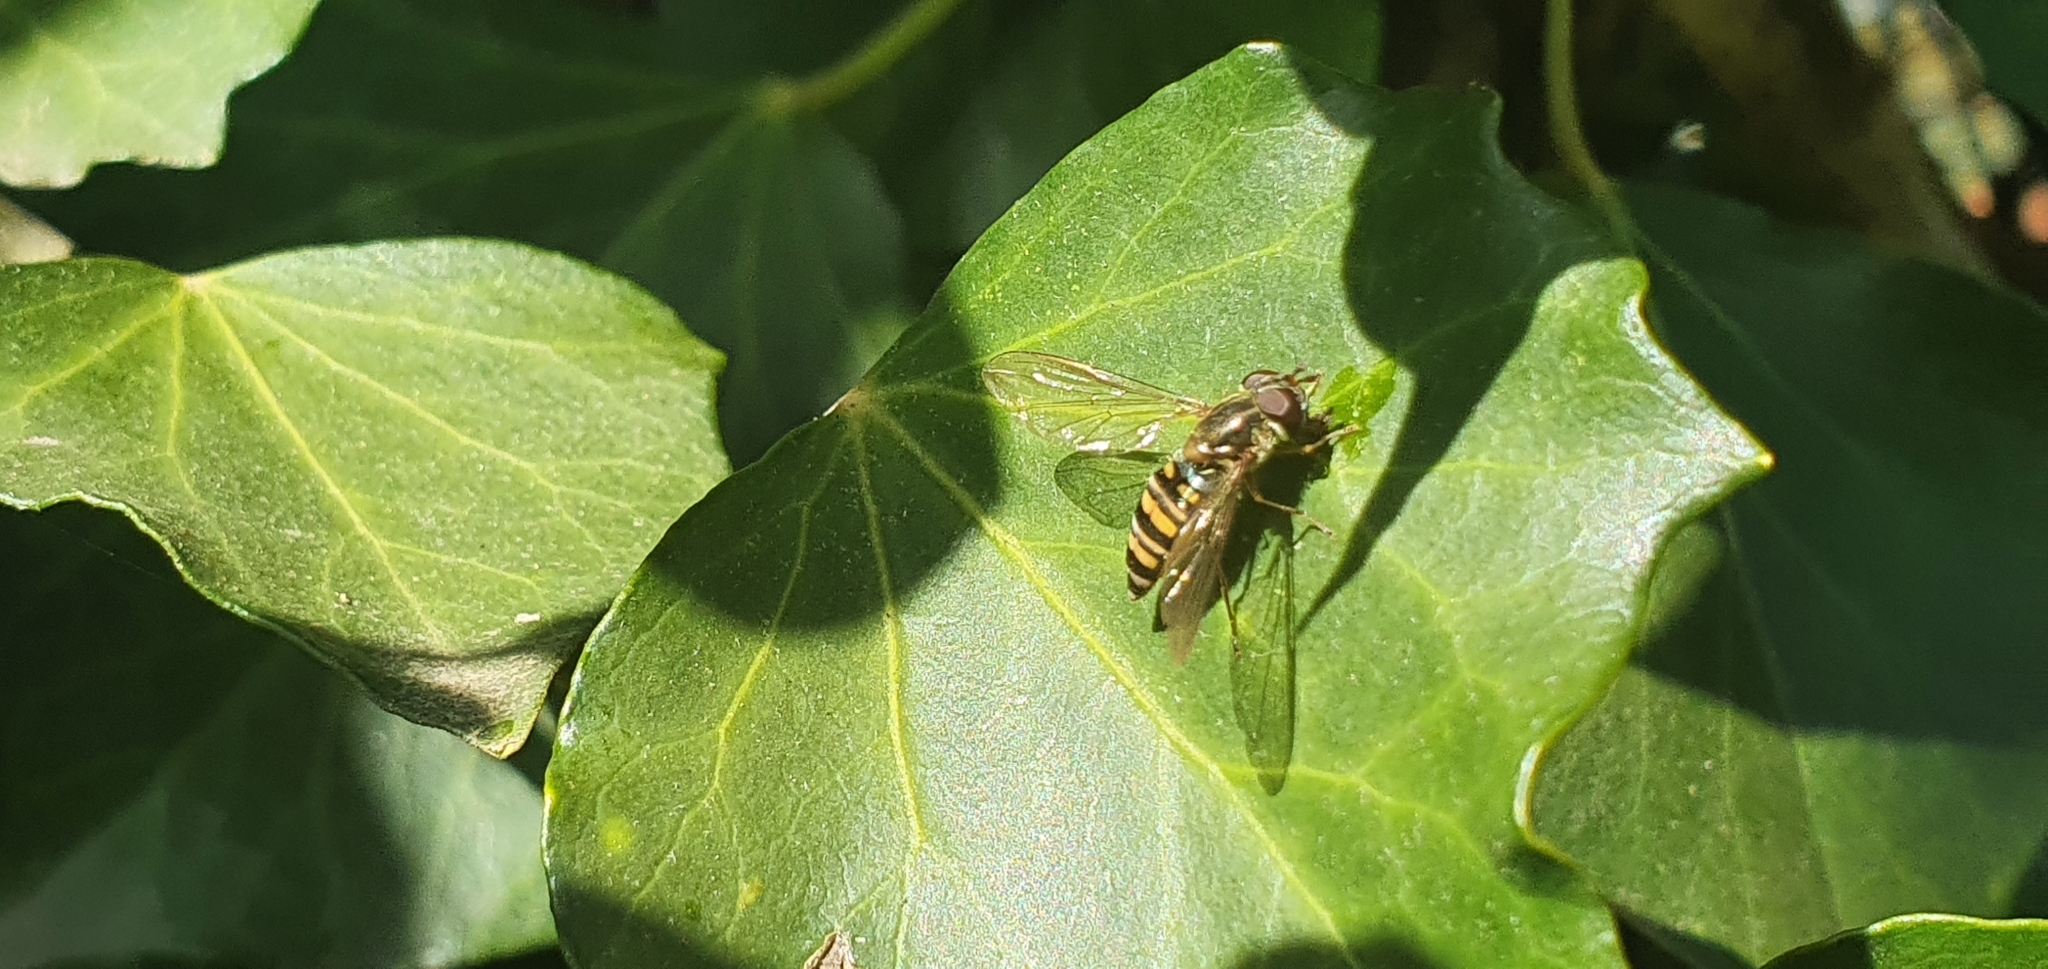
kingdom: Animalia
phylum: Arthropoda
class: Insecta
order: Diptera
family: Syrphidae
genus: Episyrphus
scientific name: Episyrphus balteatus
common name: Marmalade hoverfly
